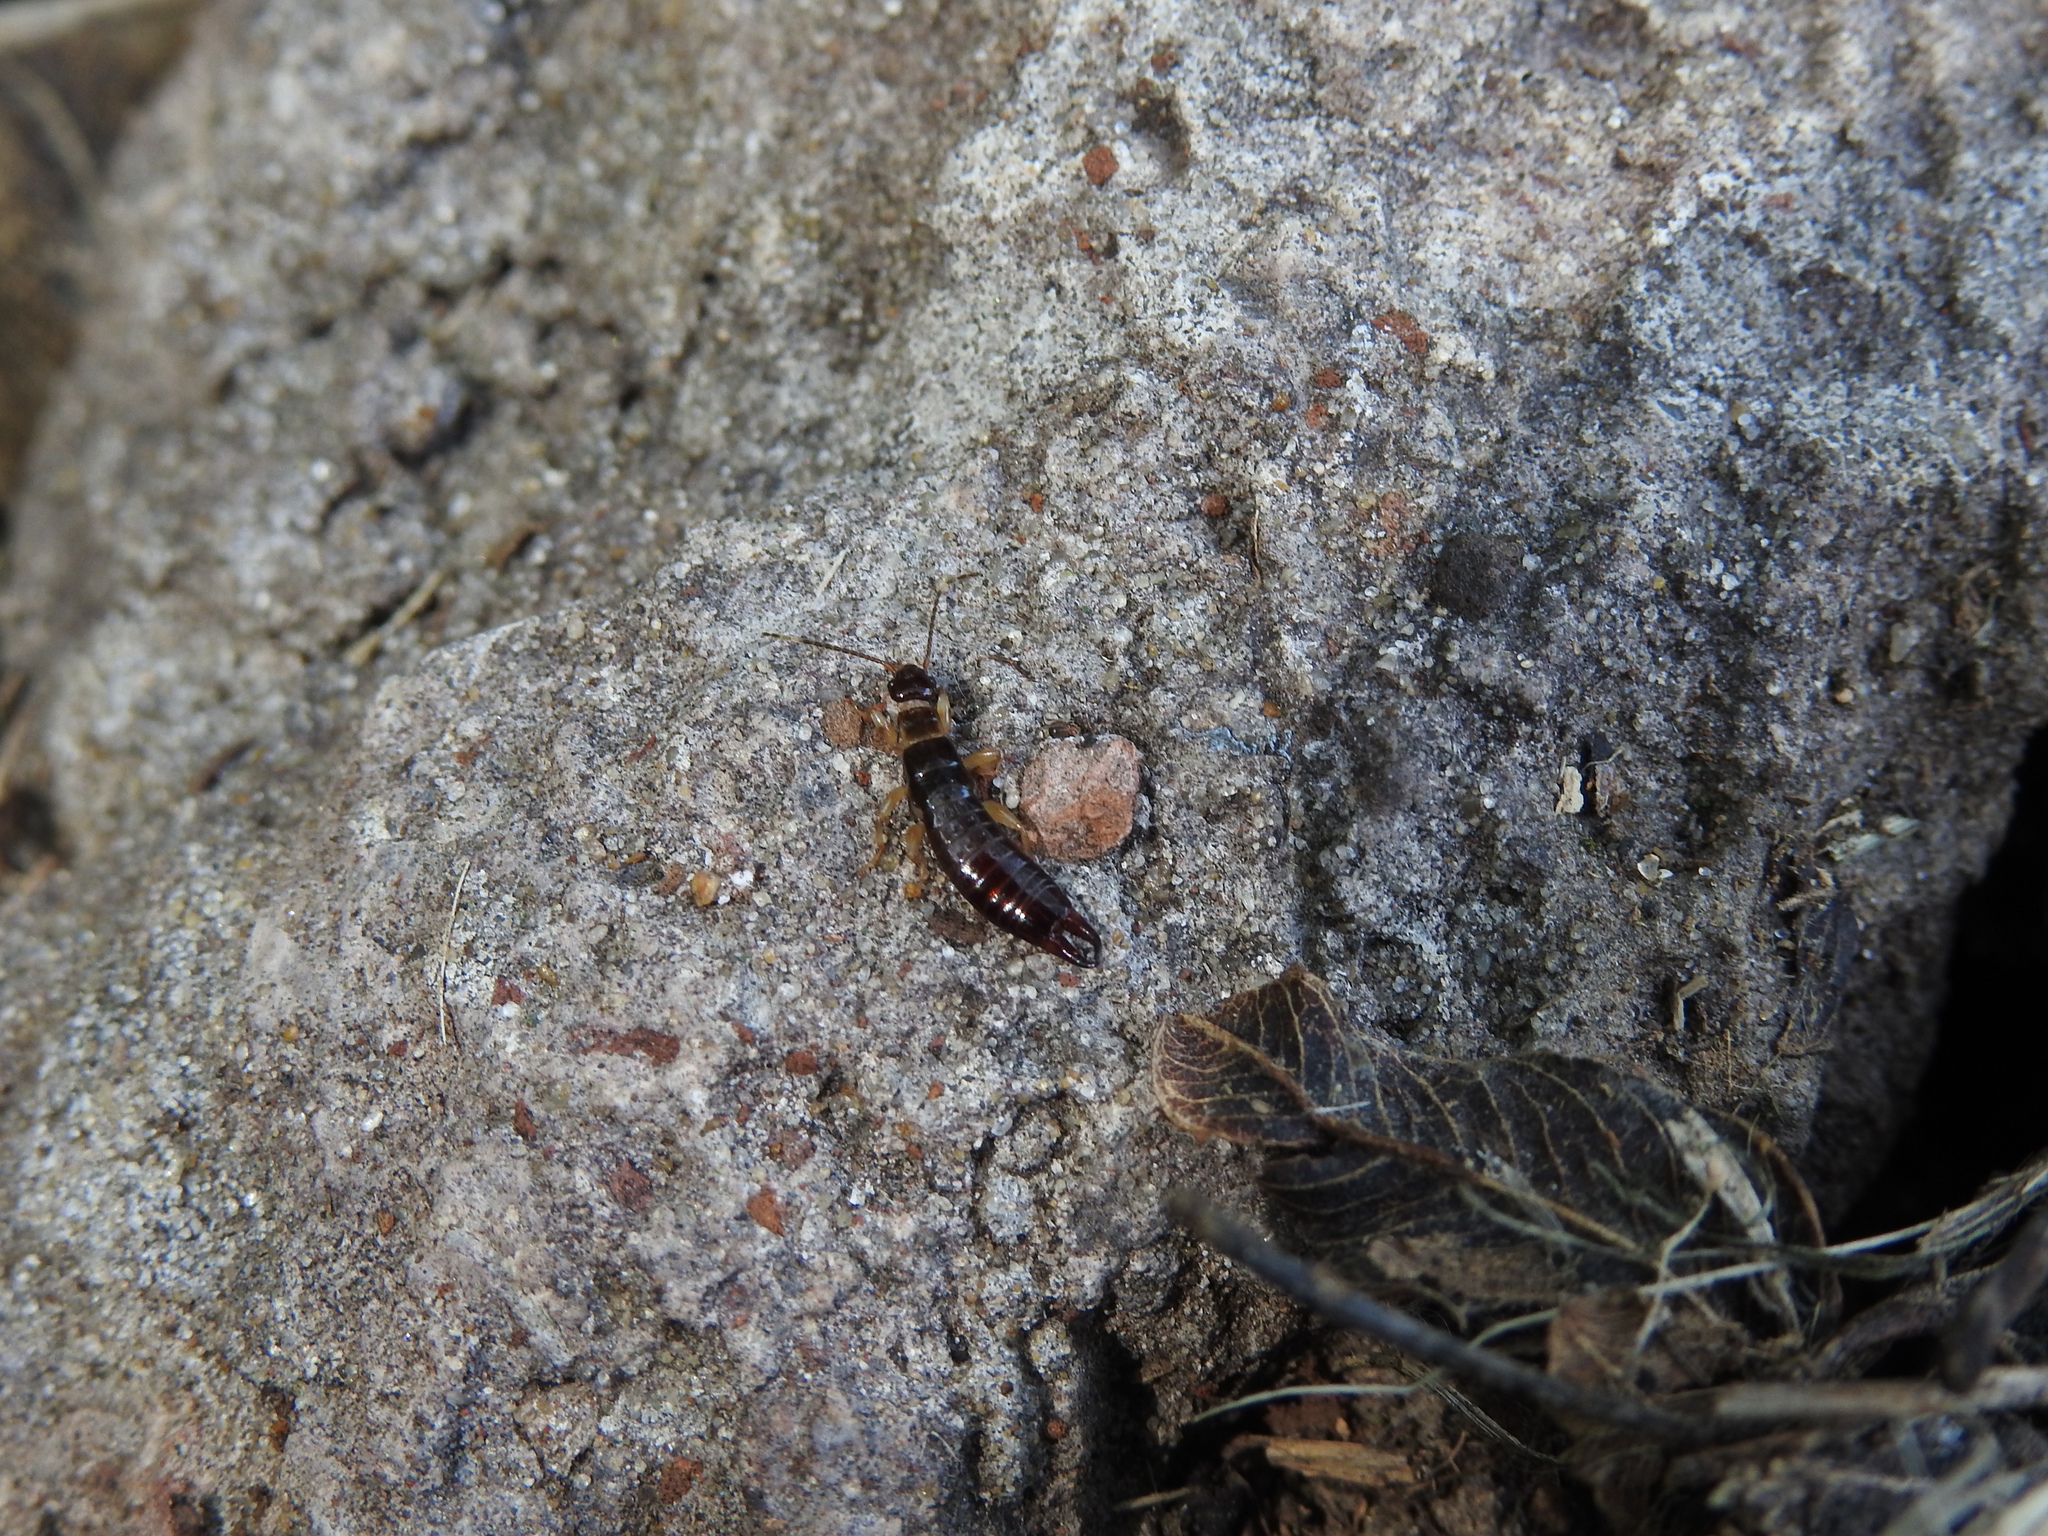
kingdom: Animalia
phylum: Arthropoda
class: Insecta
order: Dermaptera
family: Anisolabididae
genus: Euborellia
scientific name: Euborellia annulipes
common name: Ringlegged earwig
